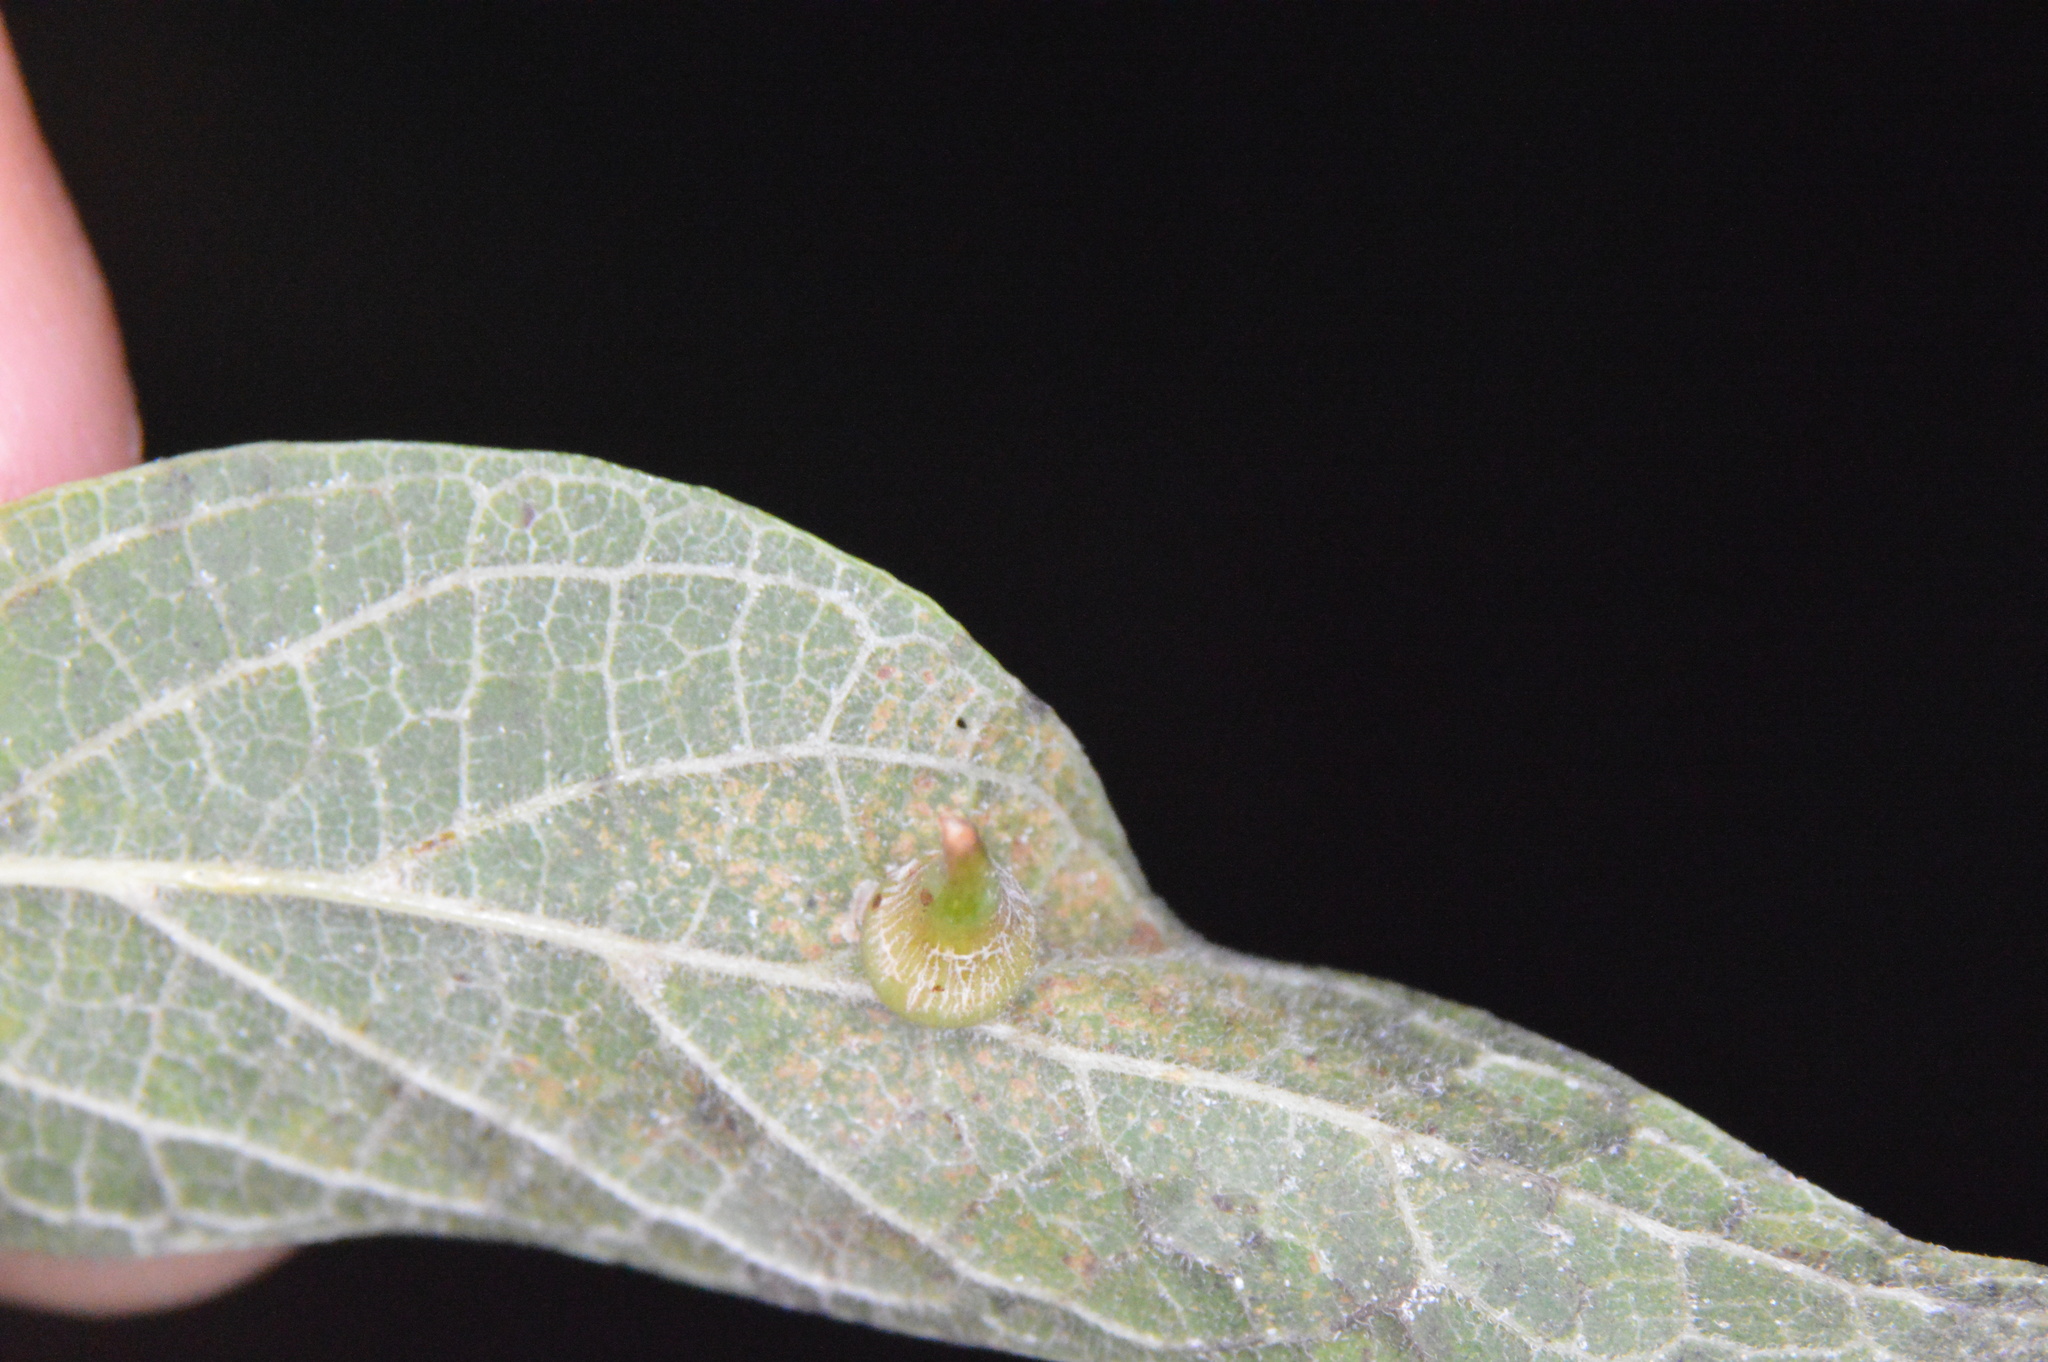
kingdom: Animalia
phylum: Arthropoda
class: Insecta
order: Diptera
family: Cecidomyiidae
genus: Celticecis
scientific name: Celticecis subulata
